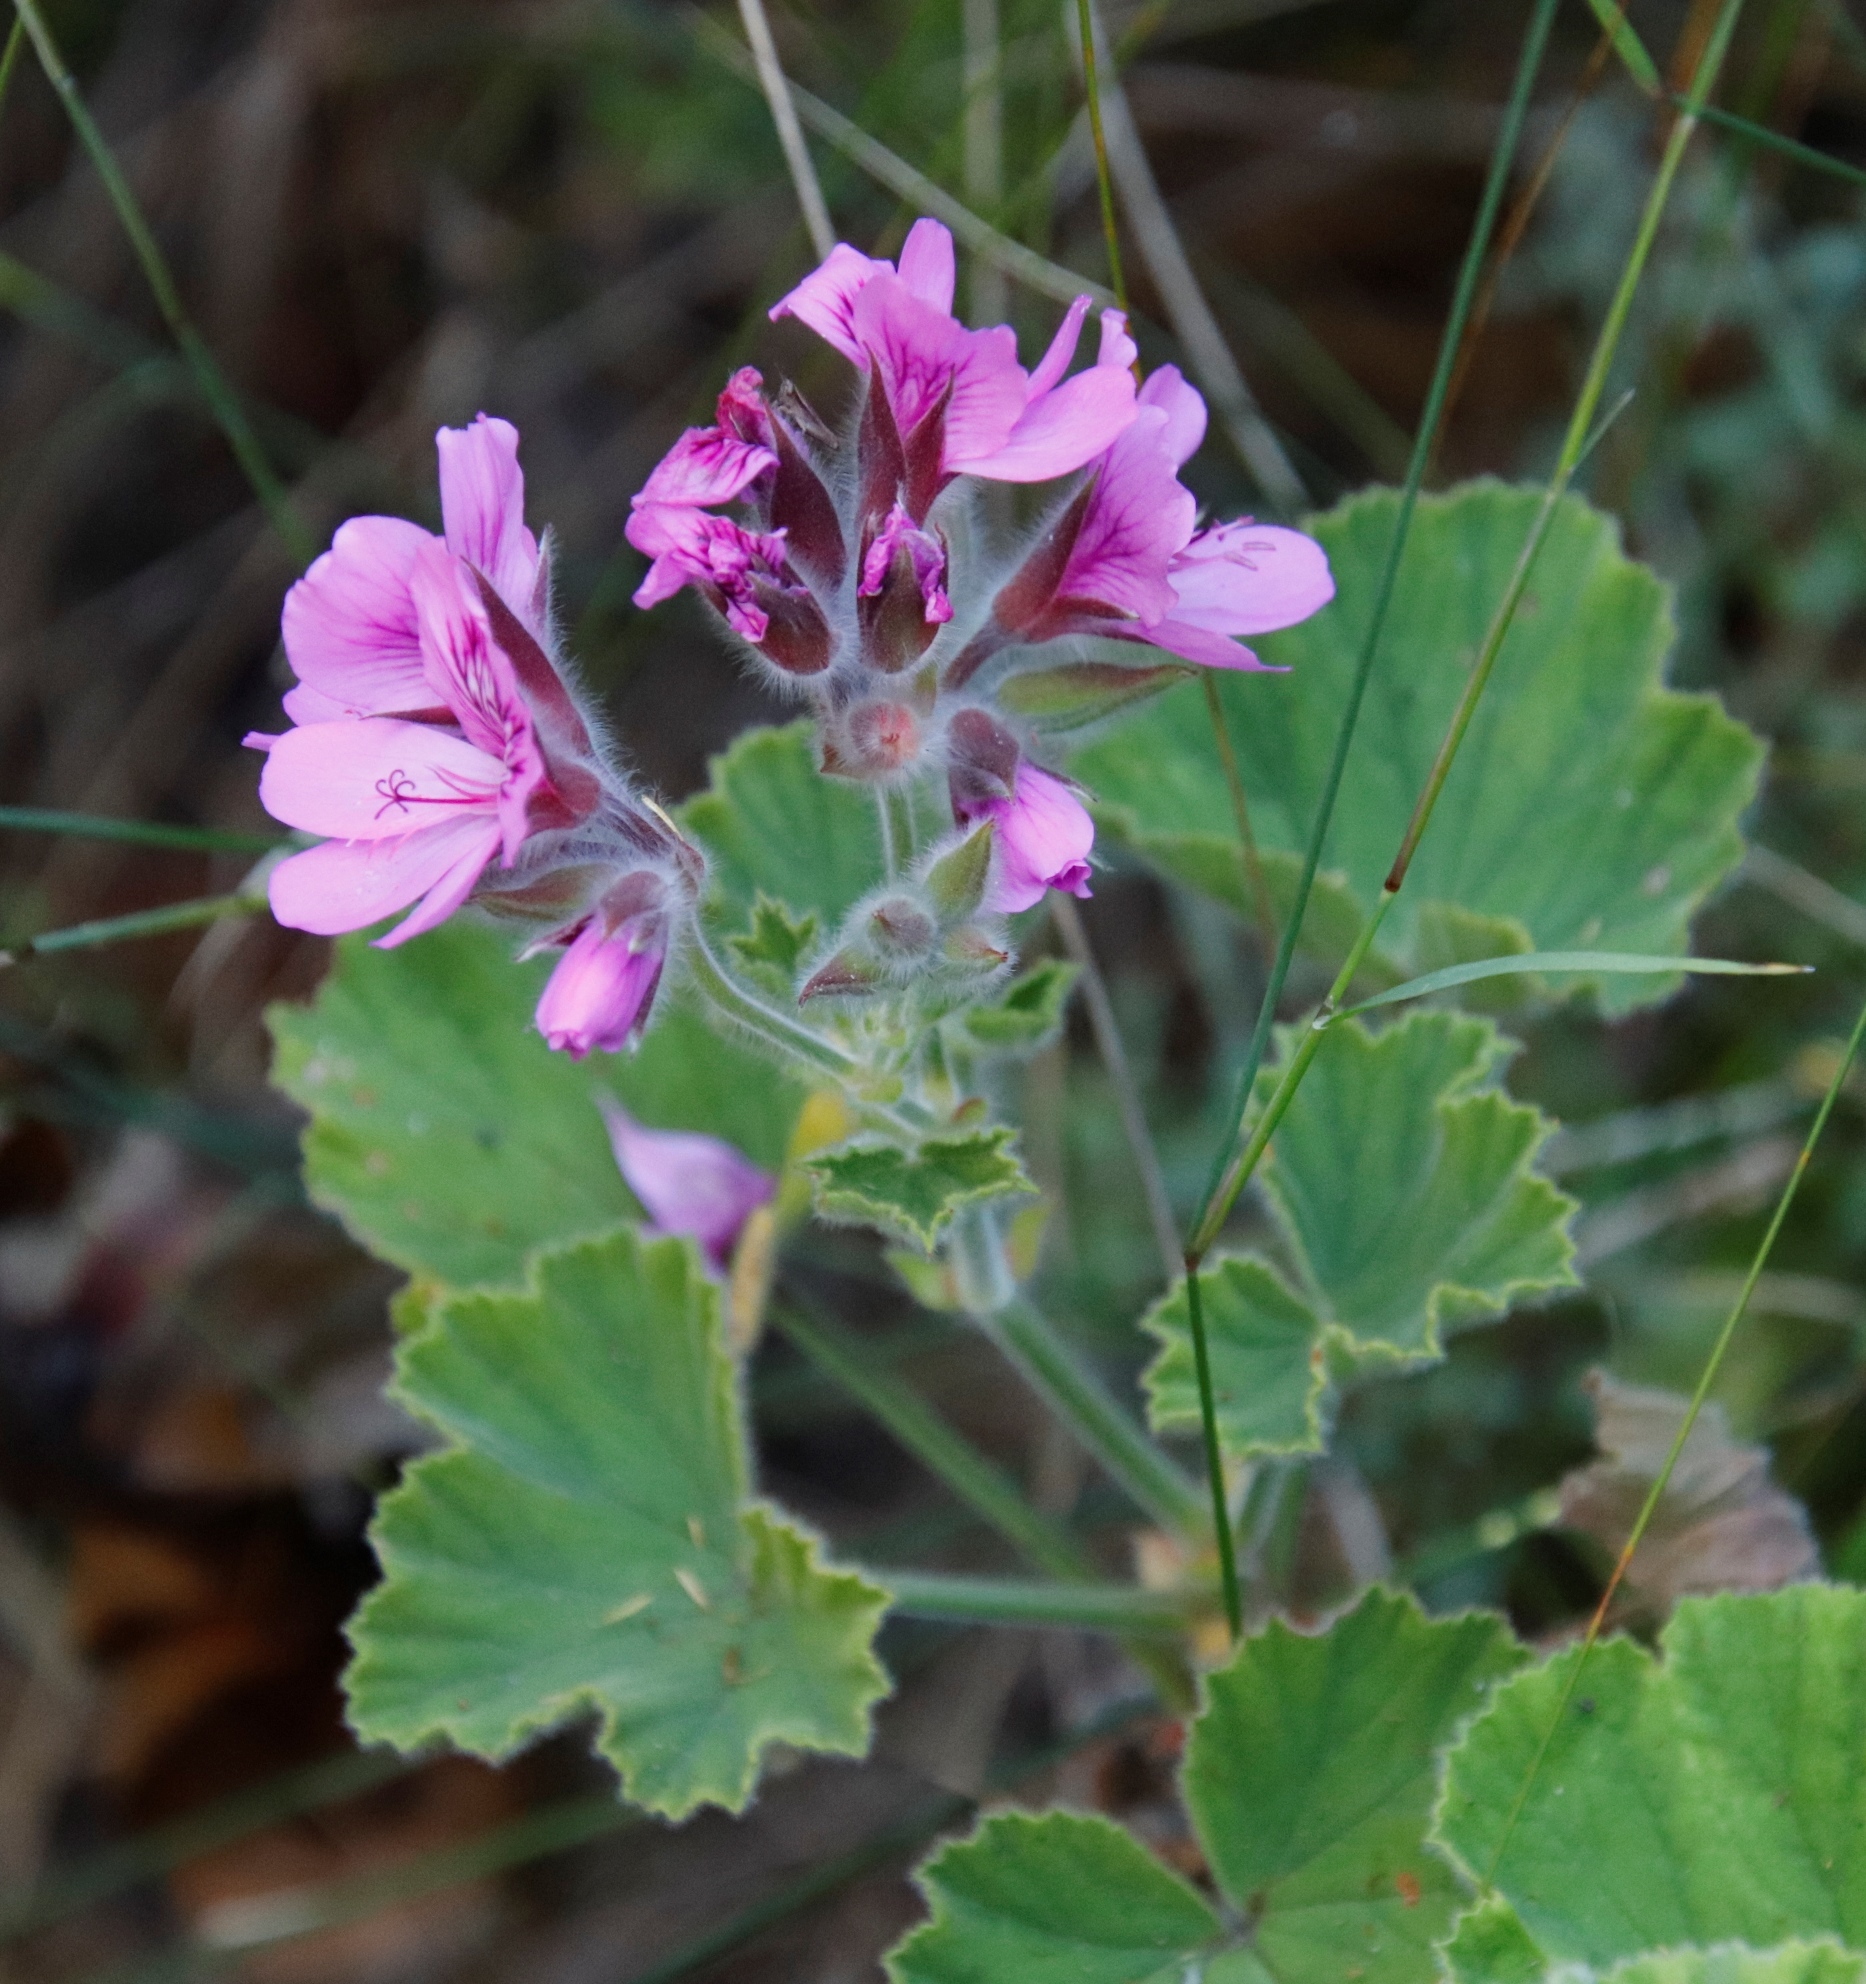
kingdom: Plantae
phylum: Tracheophyta
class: Magnoliopsida
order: Geraniales
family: Geraniaceae
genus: Pelargonium
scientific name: Pelargonium cucullatum
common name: Tree pelargonium
